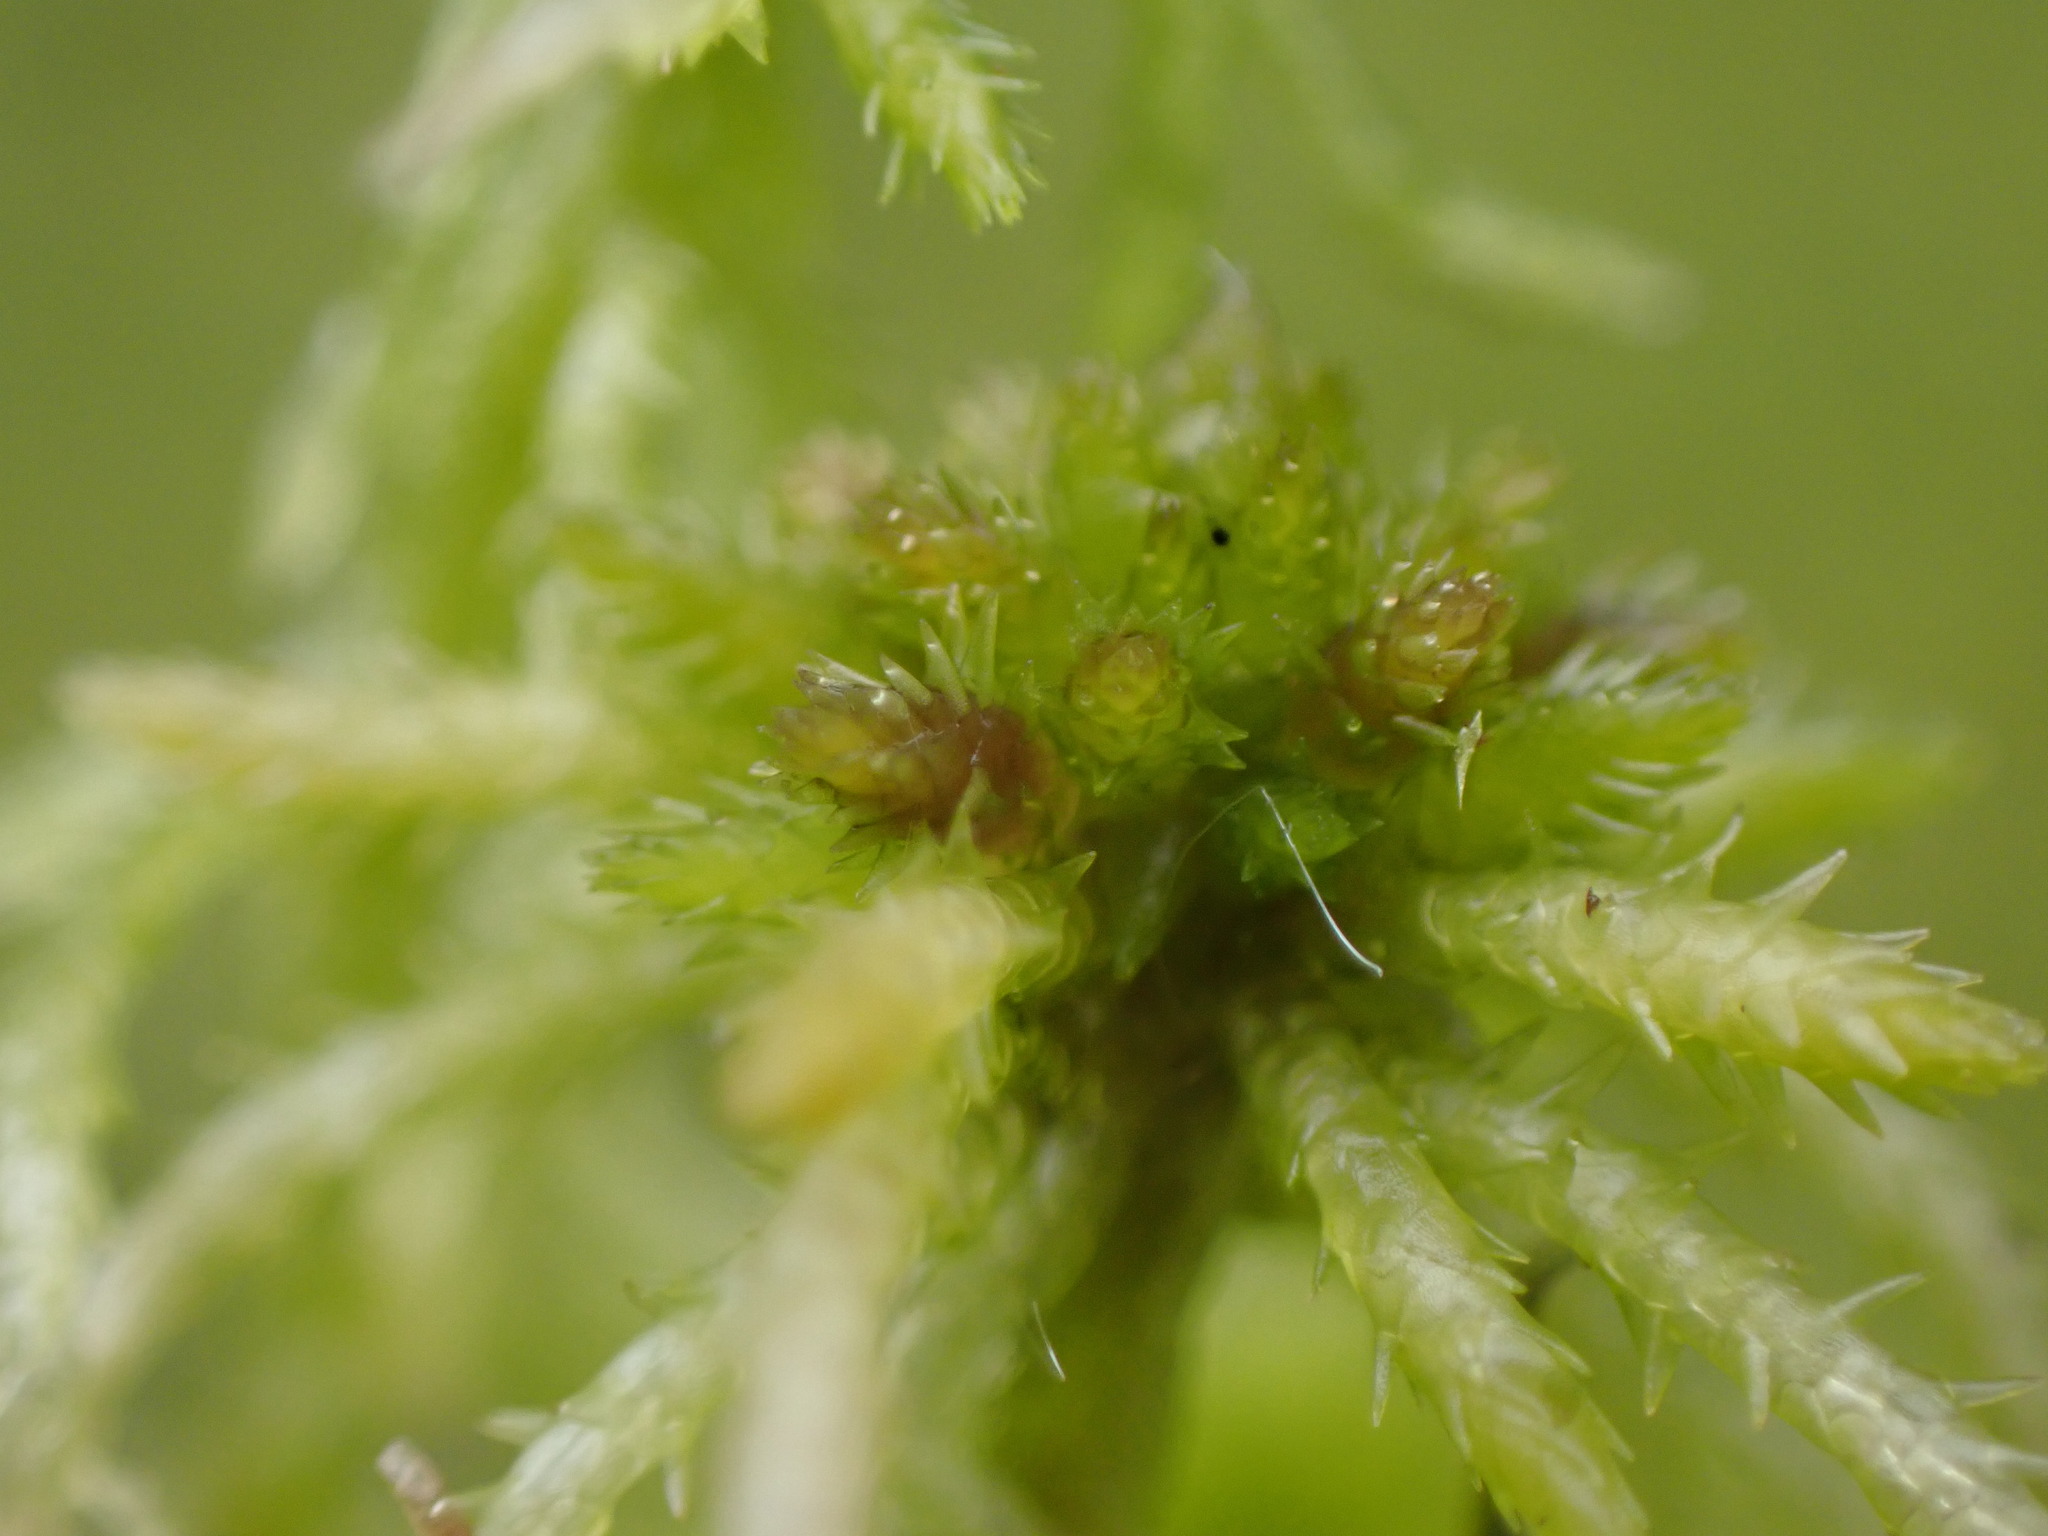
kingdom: Plantae
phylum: Bryophyta
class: Sphagnopsida
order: Sphagnales
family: Sphagnaceae
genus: Sphagnum
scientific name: Sphagnum squarrosum
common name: Shaggy peat moss
